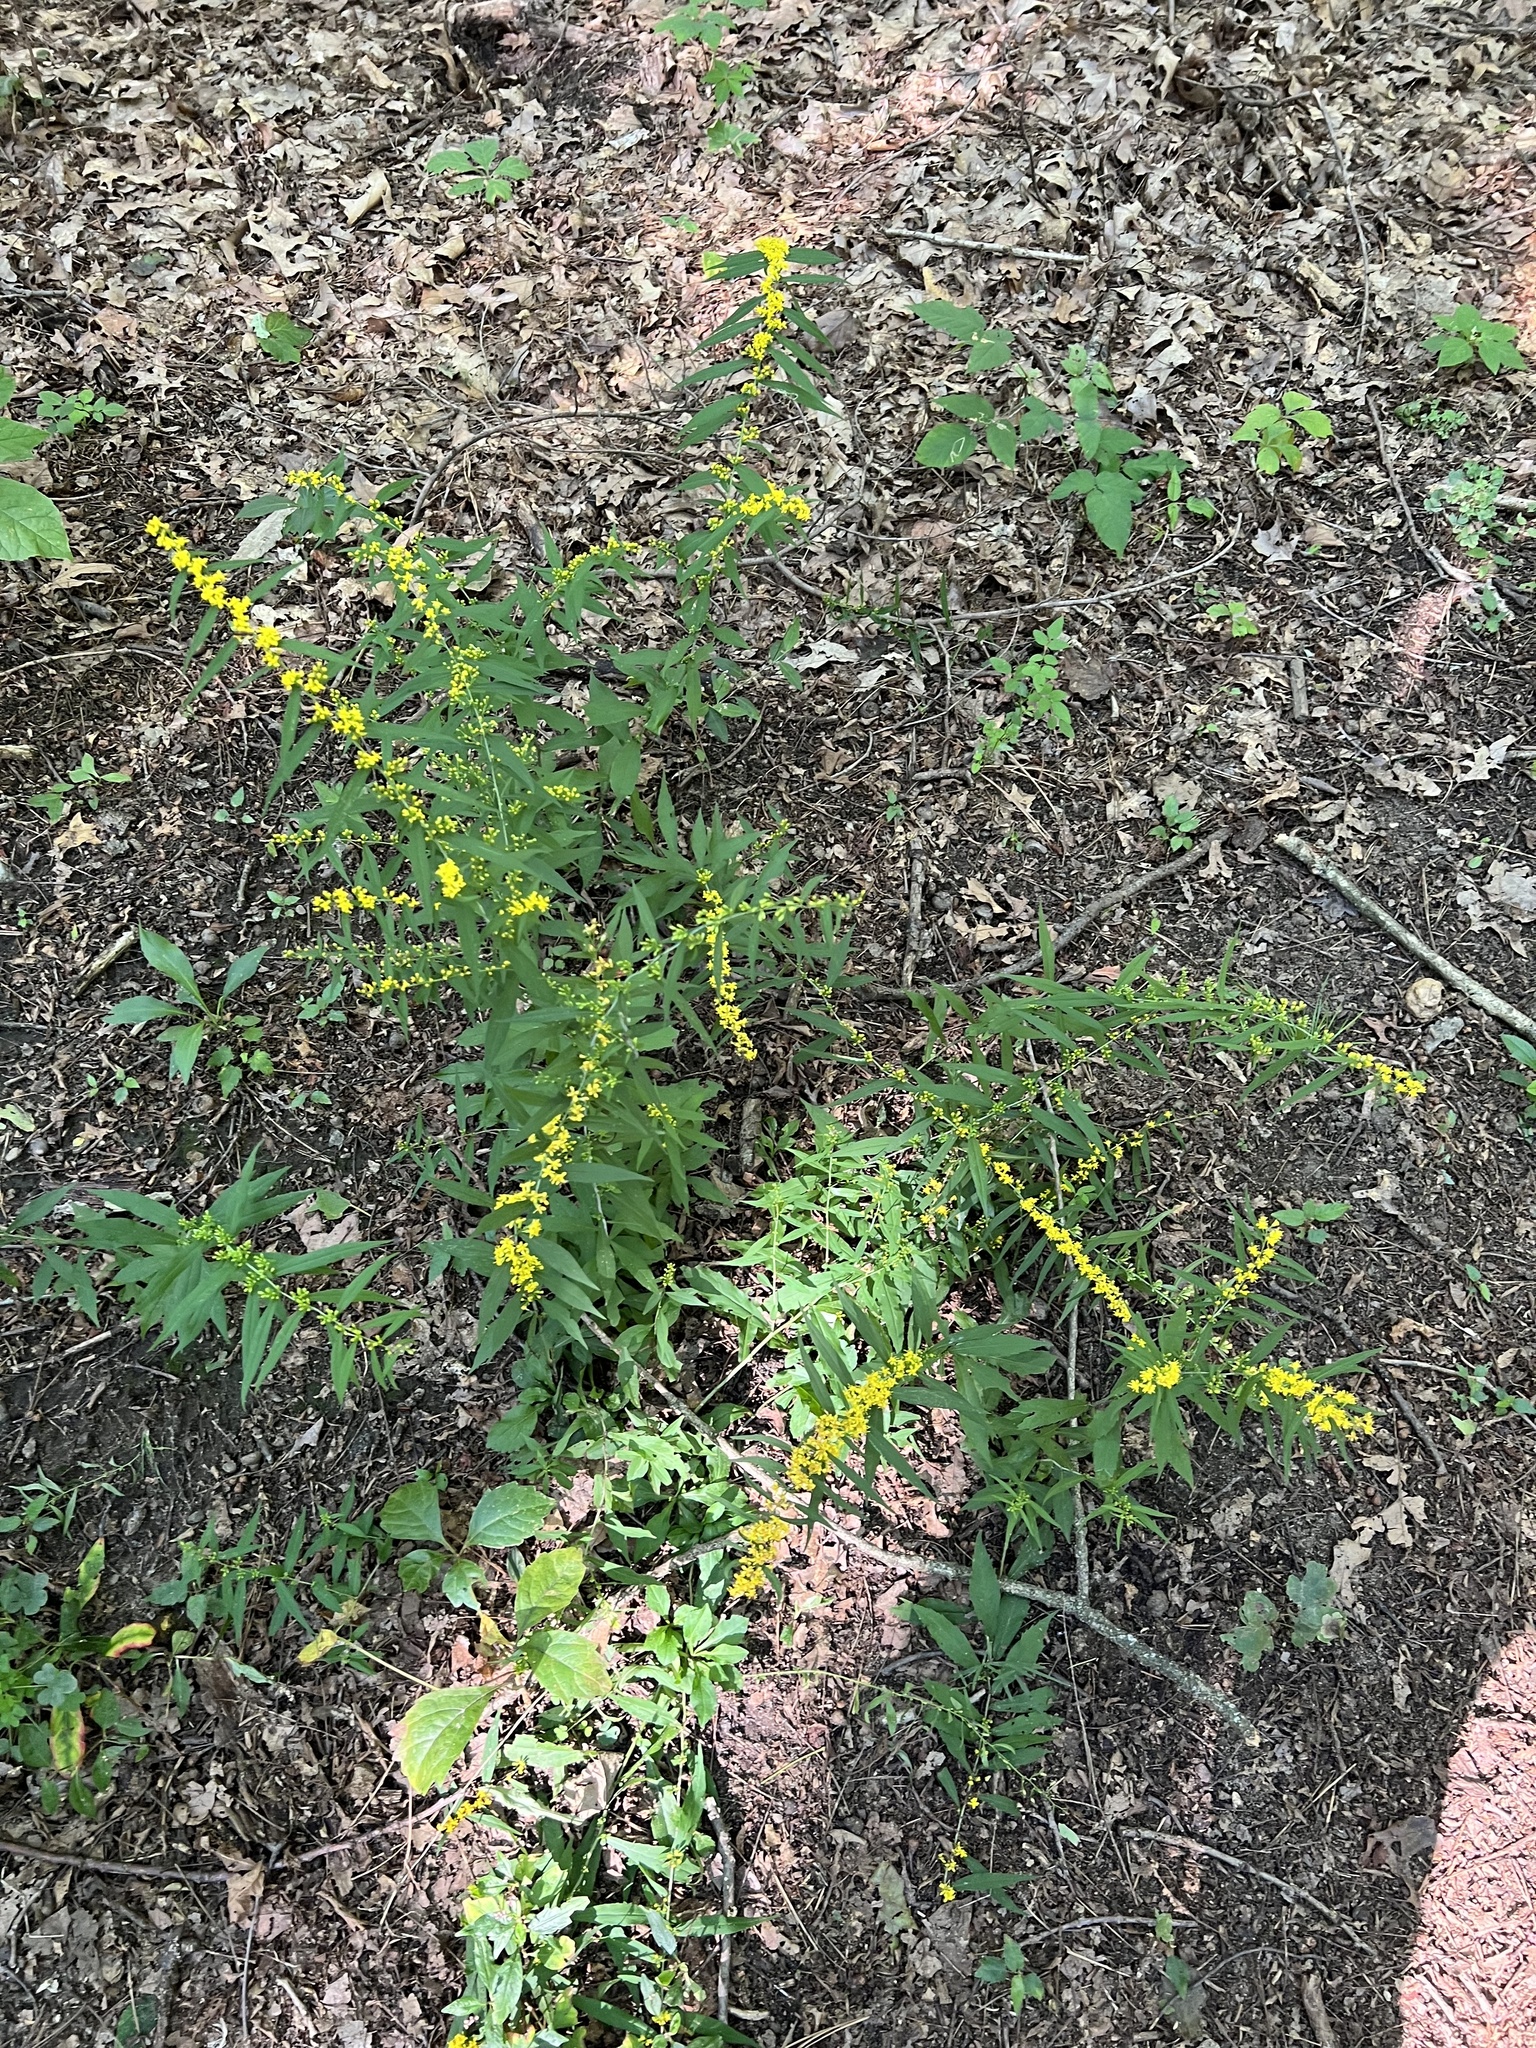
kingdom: Plantae
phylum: Tracheophyta
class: Magnoliopsida
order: Asterales
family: Asteraceae
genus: Solidago
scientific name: Solidago ulmifolia
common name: Elm-leaf goldenrod
